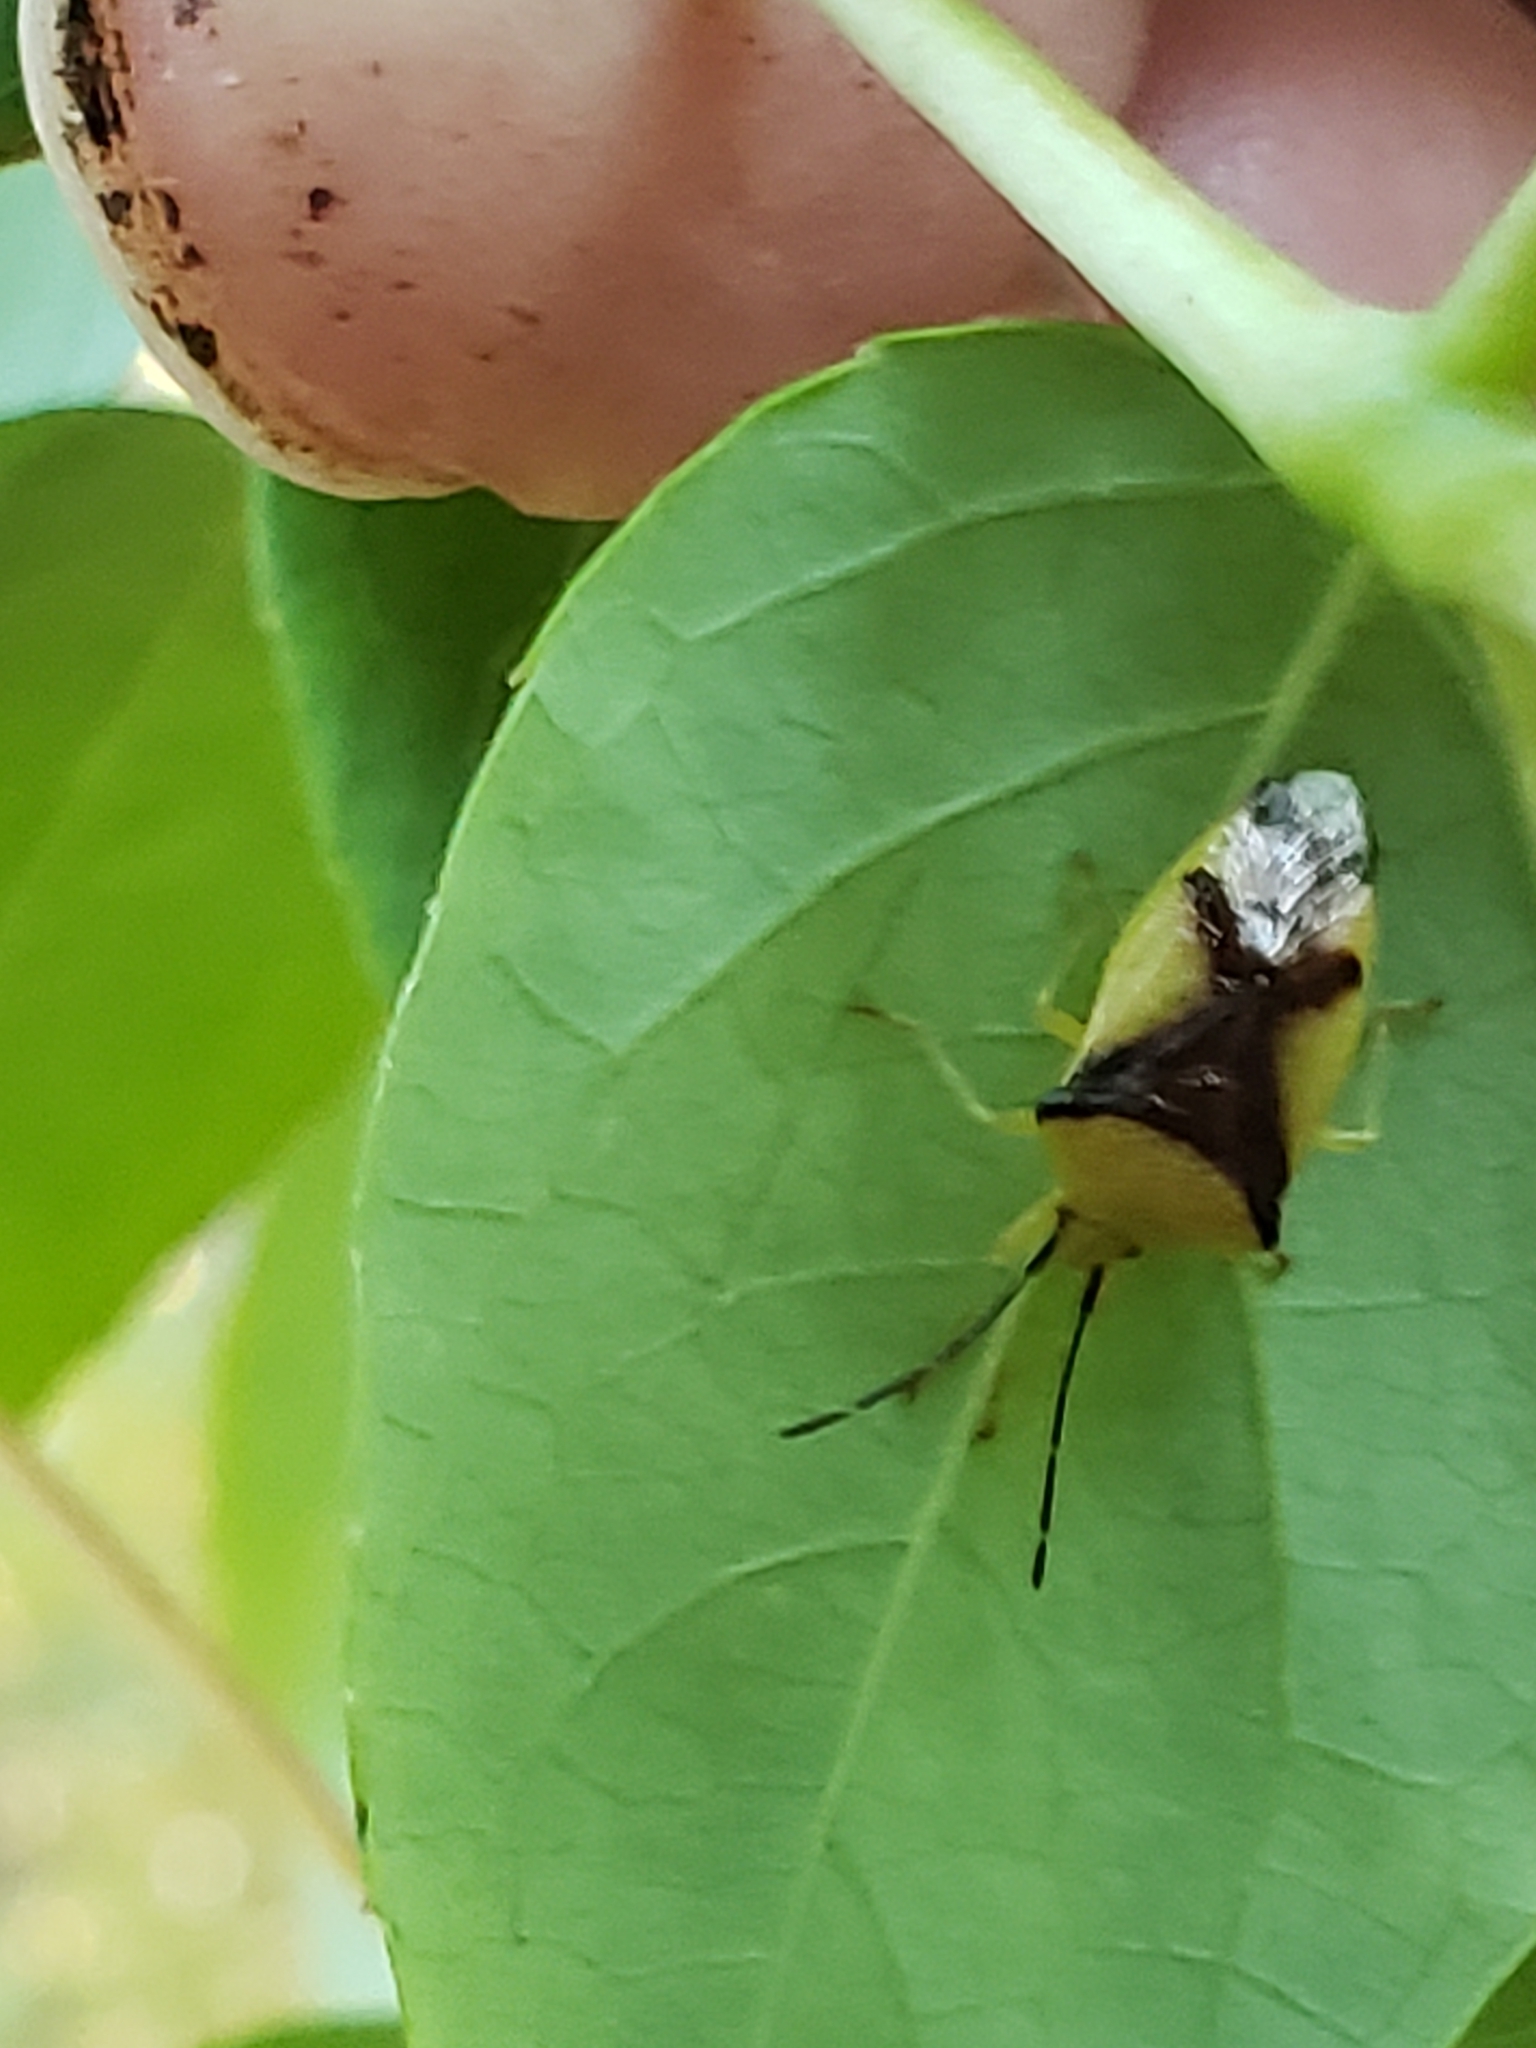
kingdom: Animalia
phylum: Arthropoda
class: Insecta
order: Hemiptera
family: Acanthosomatidae
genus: Elasmostethus
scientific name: Elasmostethus atricornis
